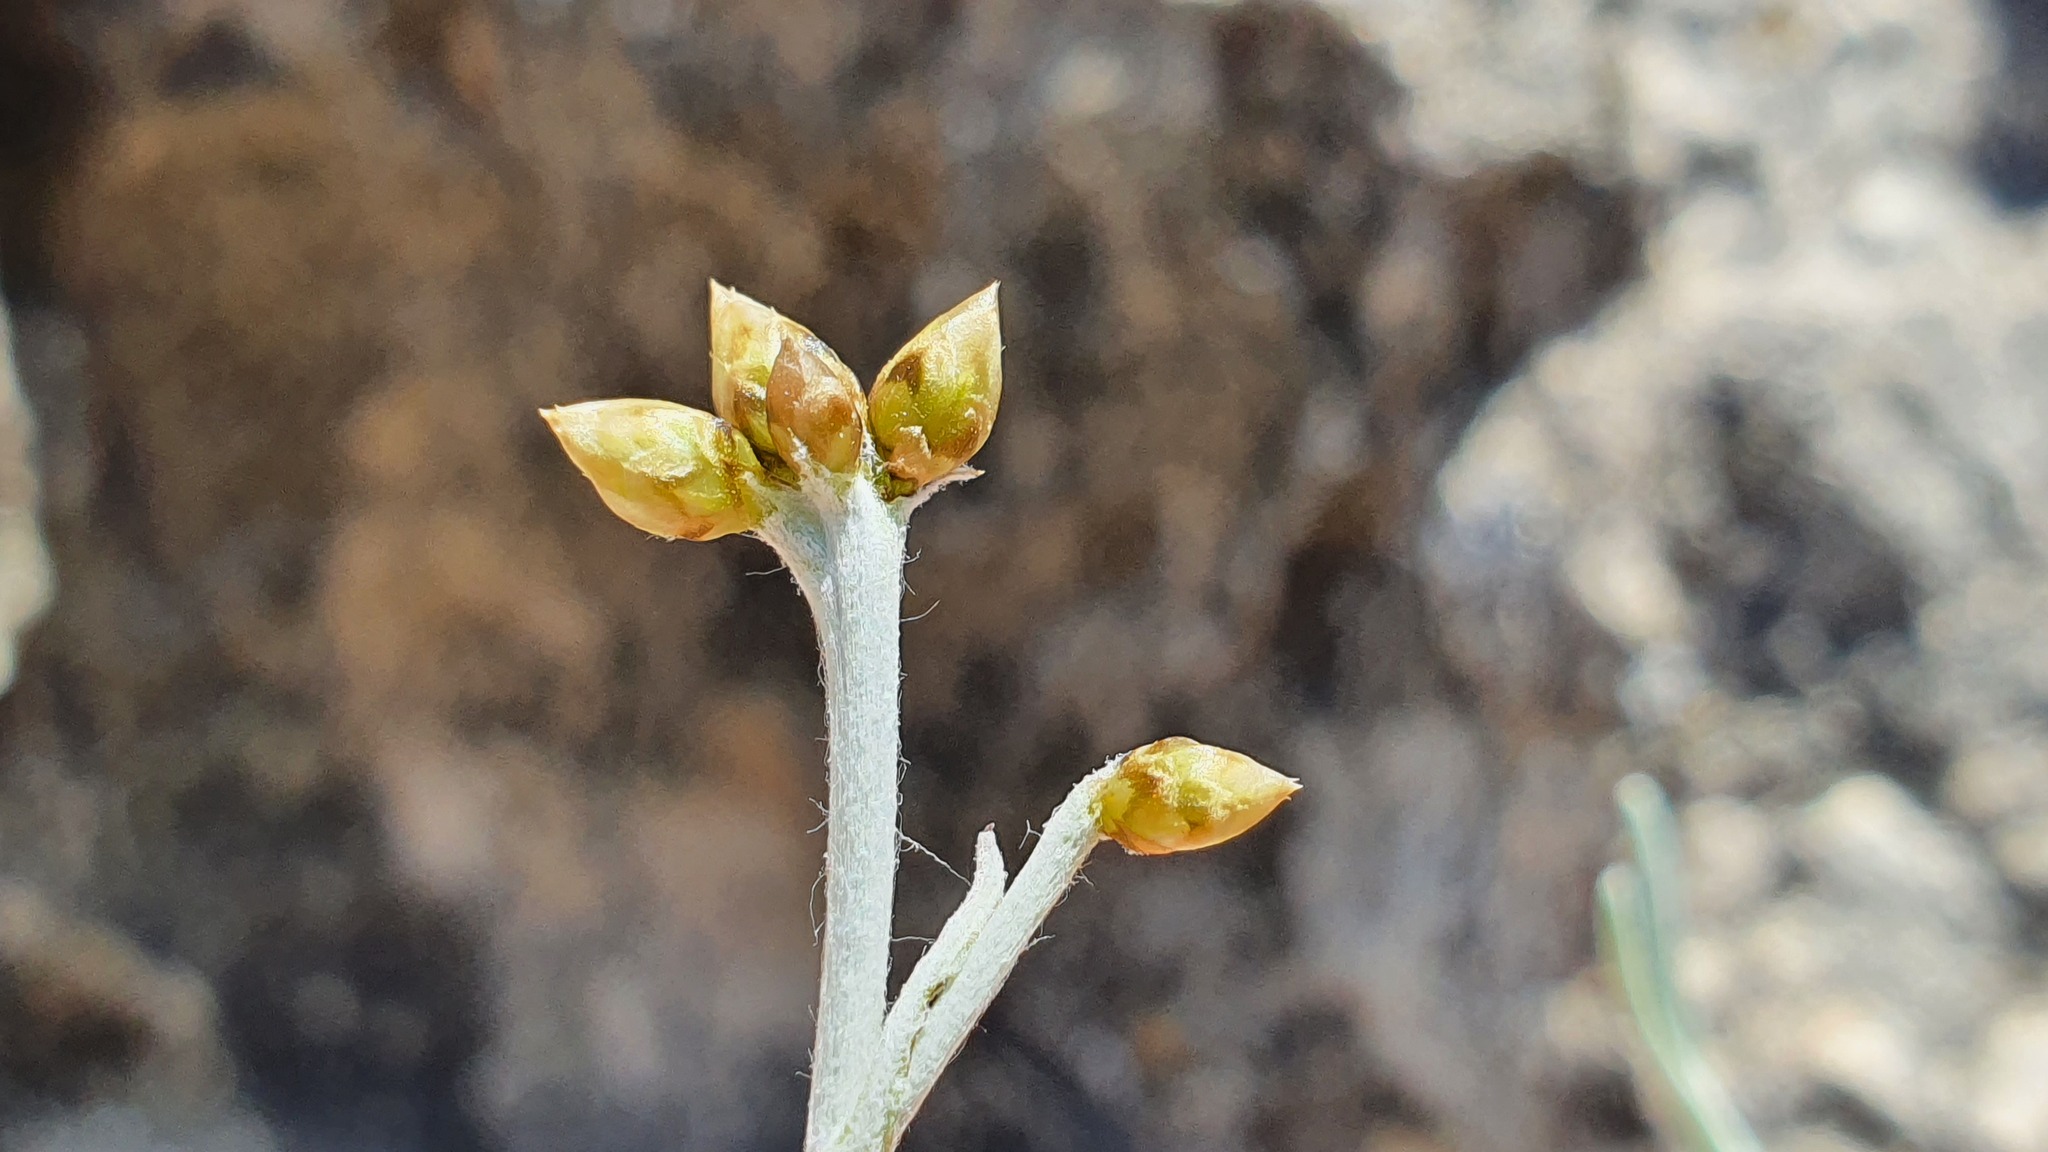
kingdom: Plantae
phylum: Tracheophyta
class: Magnoliopsida
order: Asterales
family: Asteraceae
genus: Phagnalon
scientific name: Phagnalon sordidum
